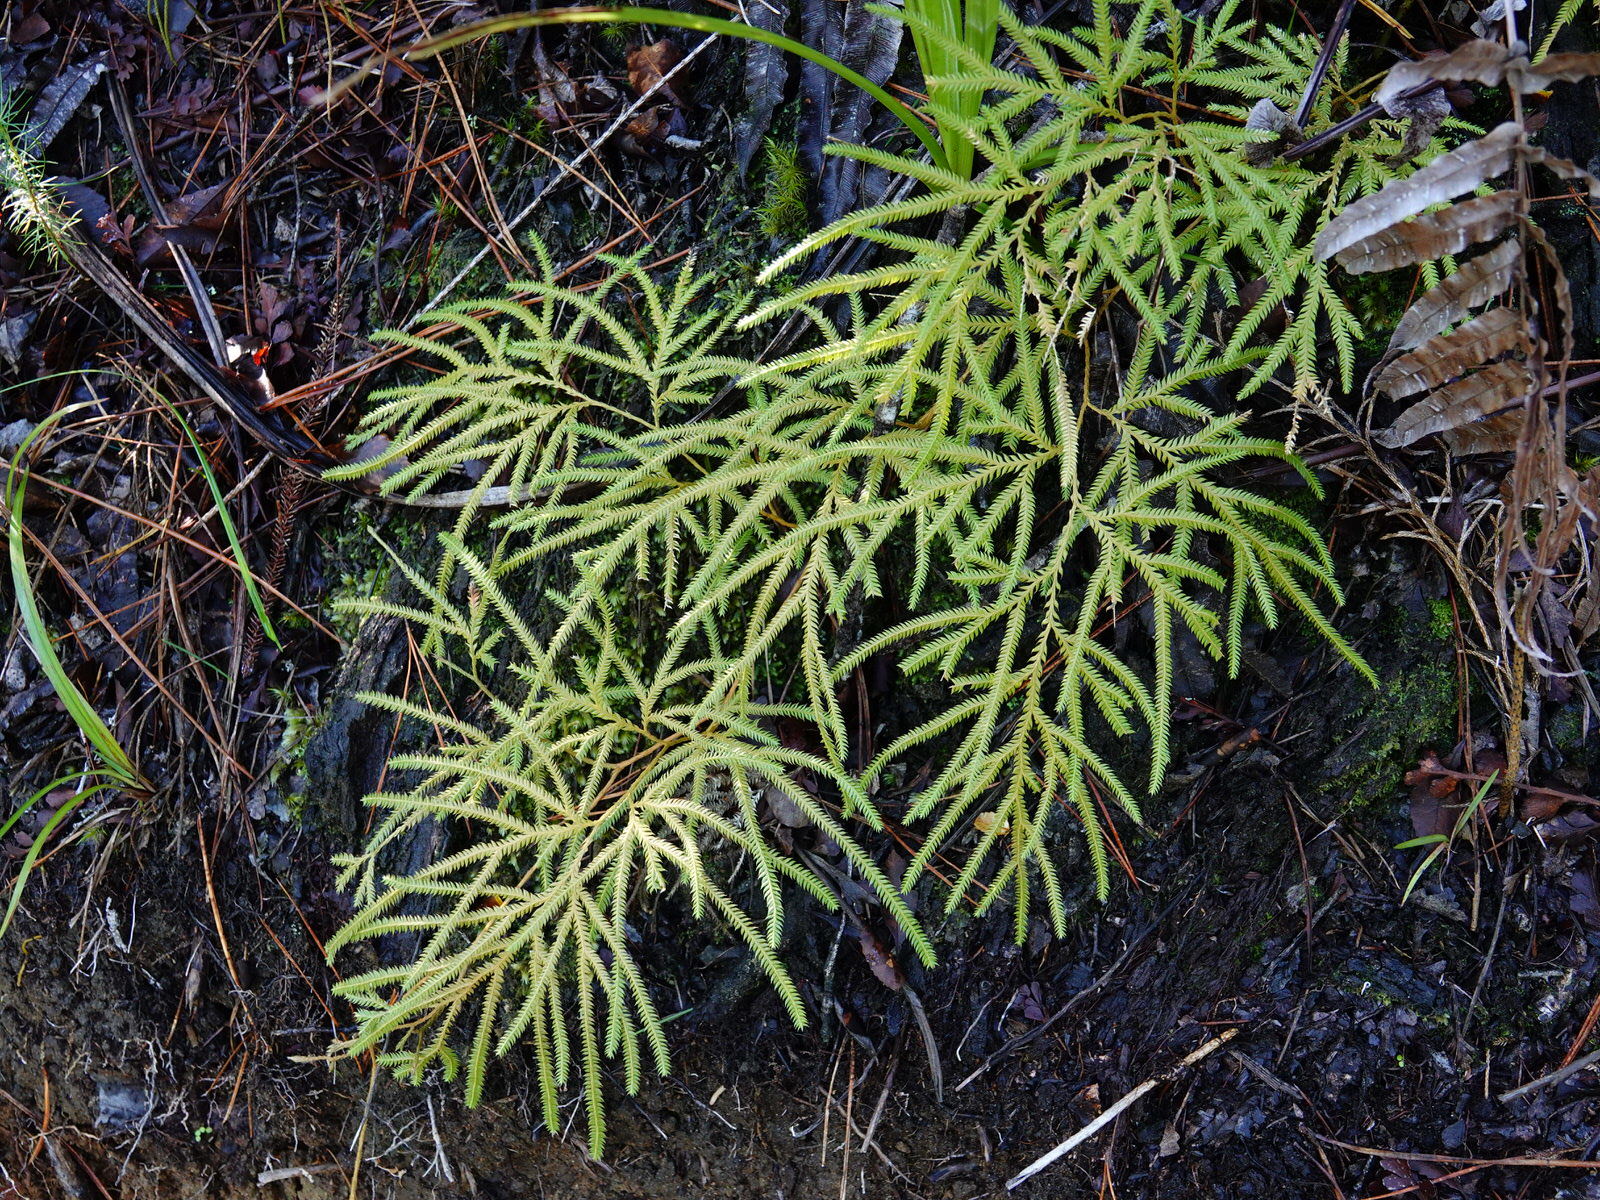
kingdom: Plantae
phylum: Tracheophyta
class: Lycopodiopsida
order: Lycopodiales
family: Lycopodiaceae
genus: Lycopodium
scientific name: Lycopodium volubile
